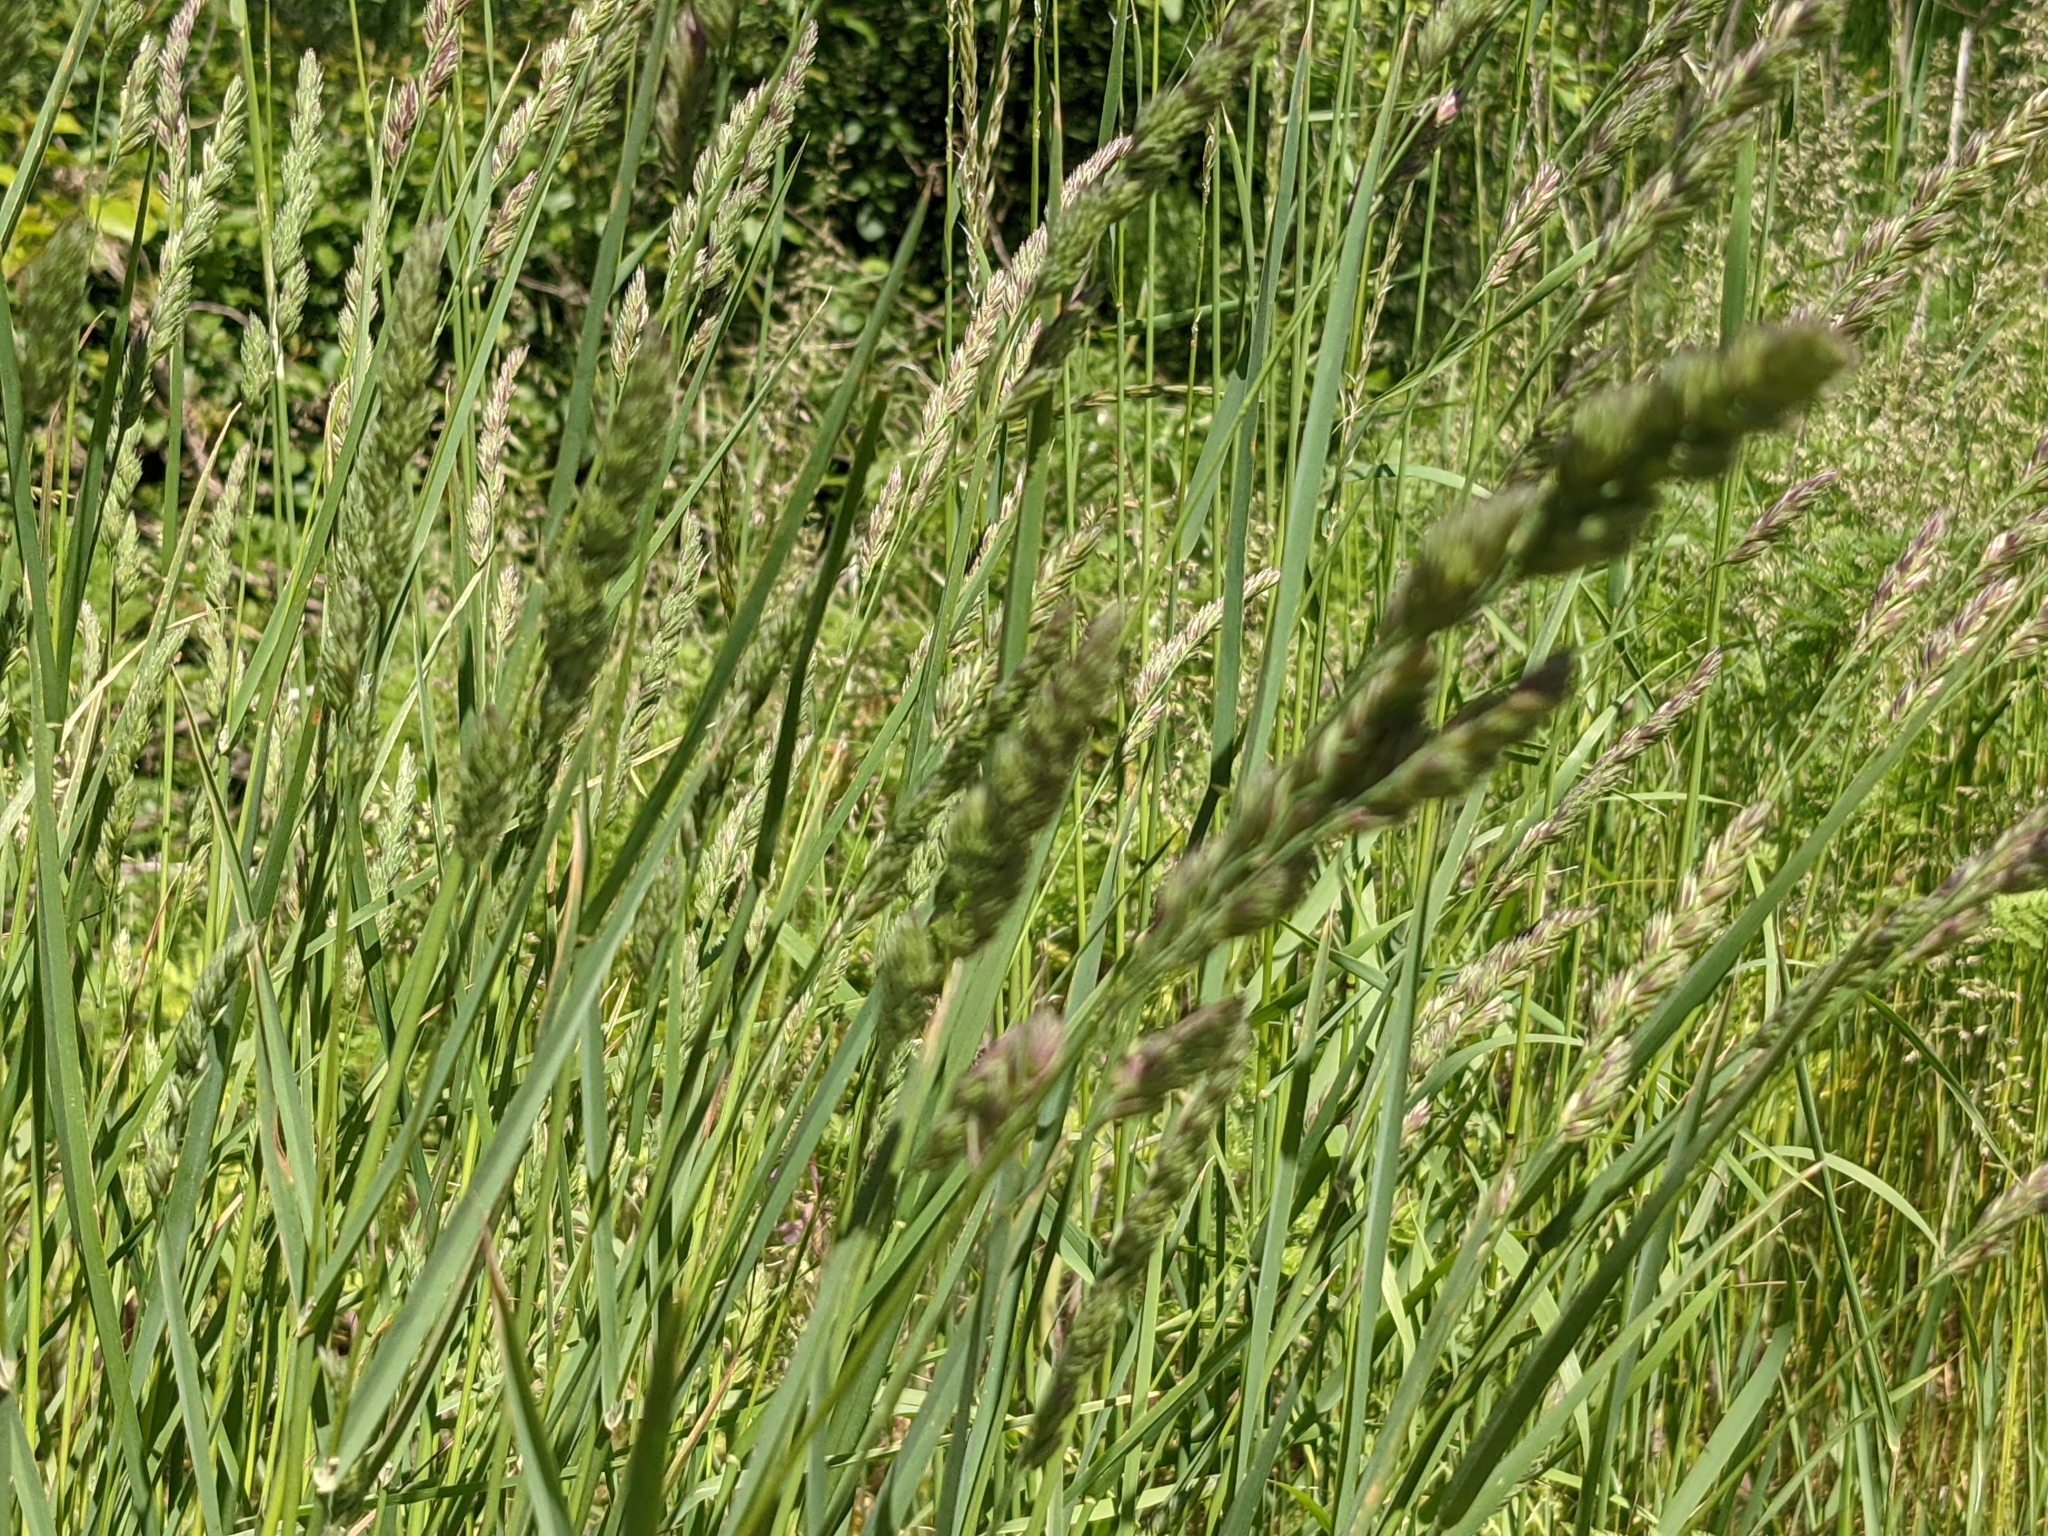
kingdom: Plantae
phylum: Tracheophyta
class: Liliopsida
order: Poales
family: Poaceae
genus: Dactylis
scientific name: Dactylis glomerata
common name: Orchardgrass
